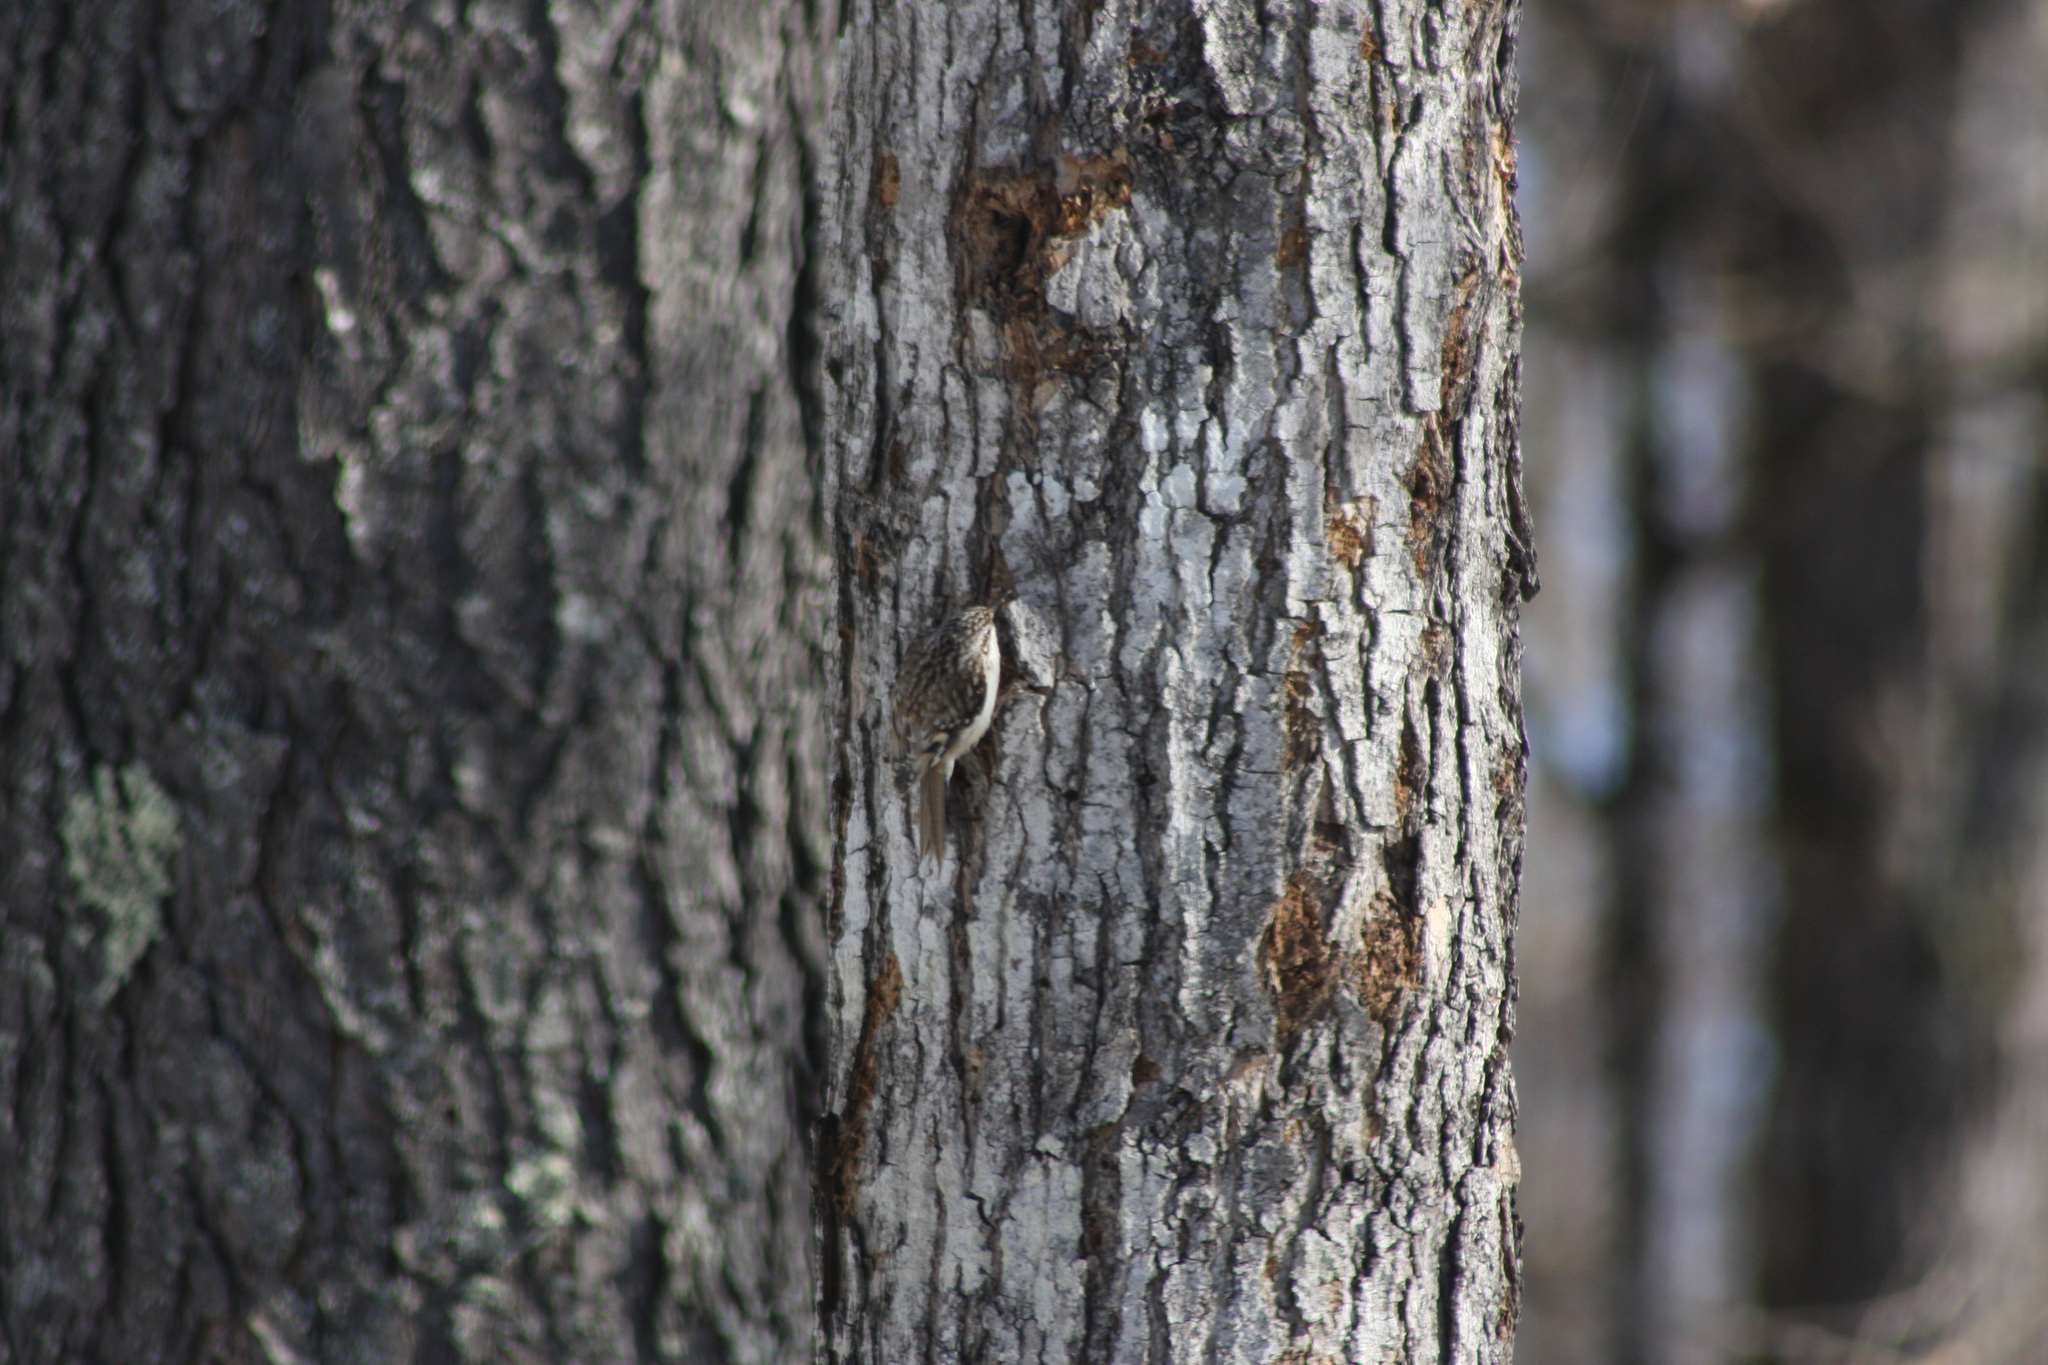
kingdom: Animalia
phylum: Chordata
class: Aves
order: Passeriformes
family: Certhiidae
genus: Certhia
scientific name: Certhia americana
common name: Brown creeper
